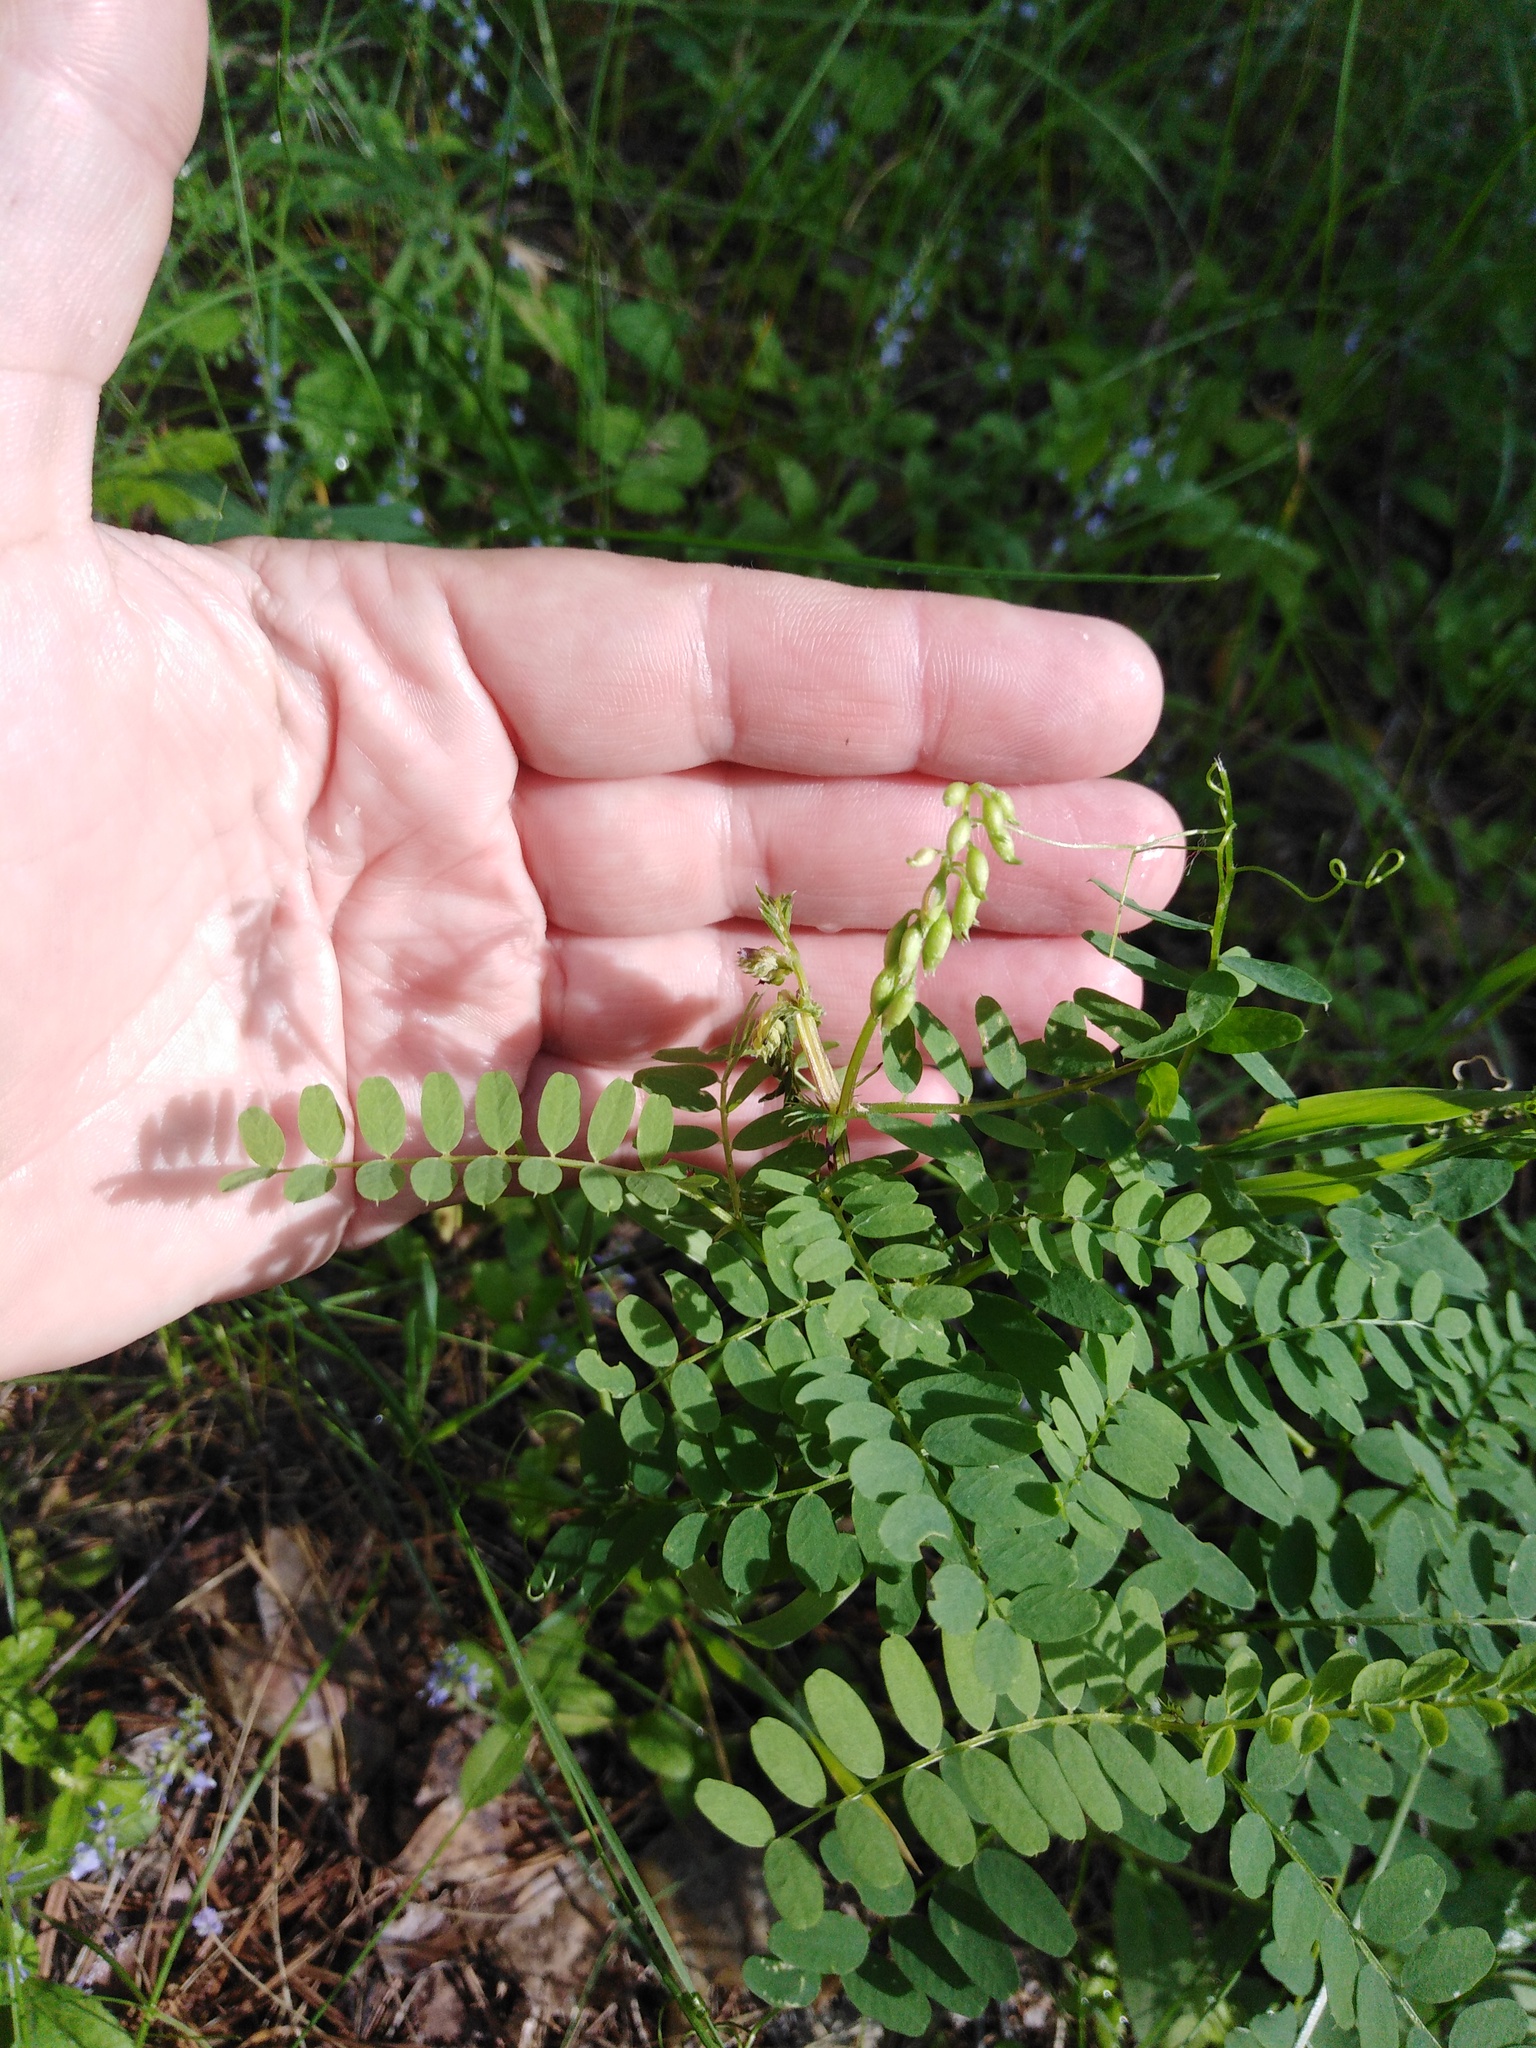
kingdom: Plantae
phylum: Tracheophyta
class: Magnoliopsida
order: Fabales
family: Fabaceae
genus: Vicia
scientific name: Vicia sylvatica
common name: Wood vetch
